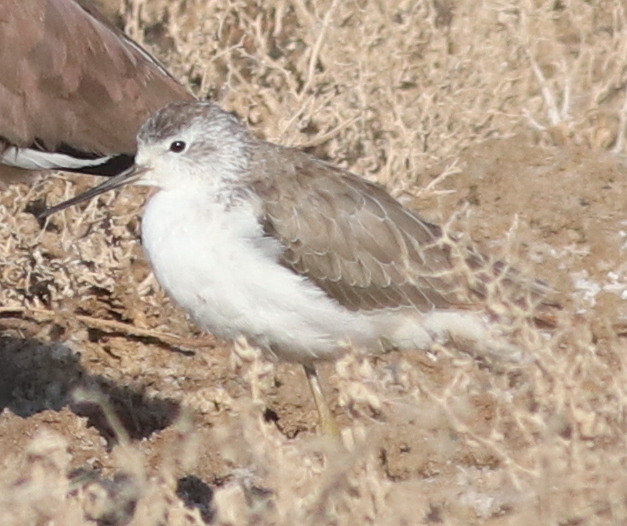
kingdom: Animalia
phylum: Chordata
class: Aves
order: Charadriiformes
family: Scolopacidae
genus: Tringa
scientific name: Tringa stagnatilis
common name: Marsh sandpiper
